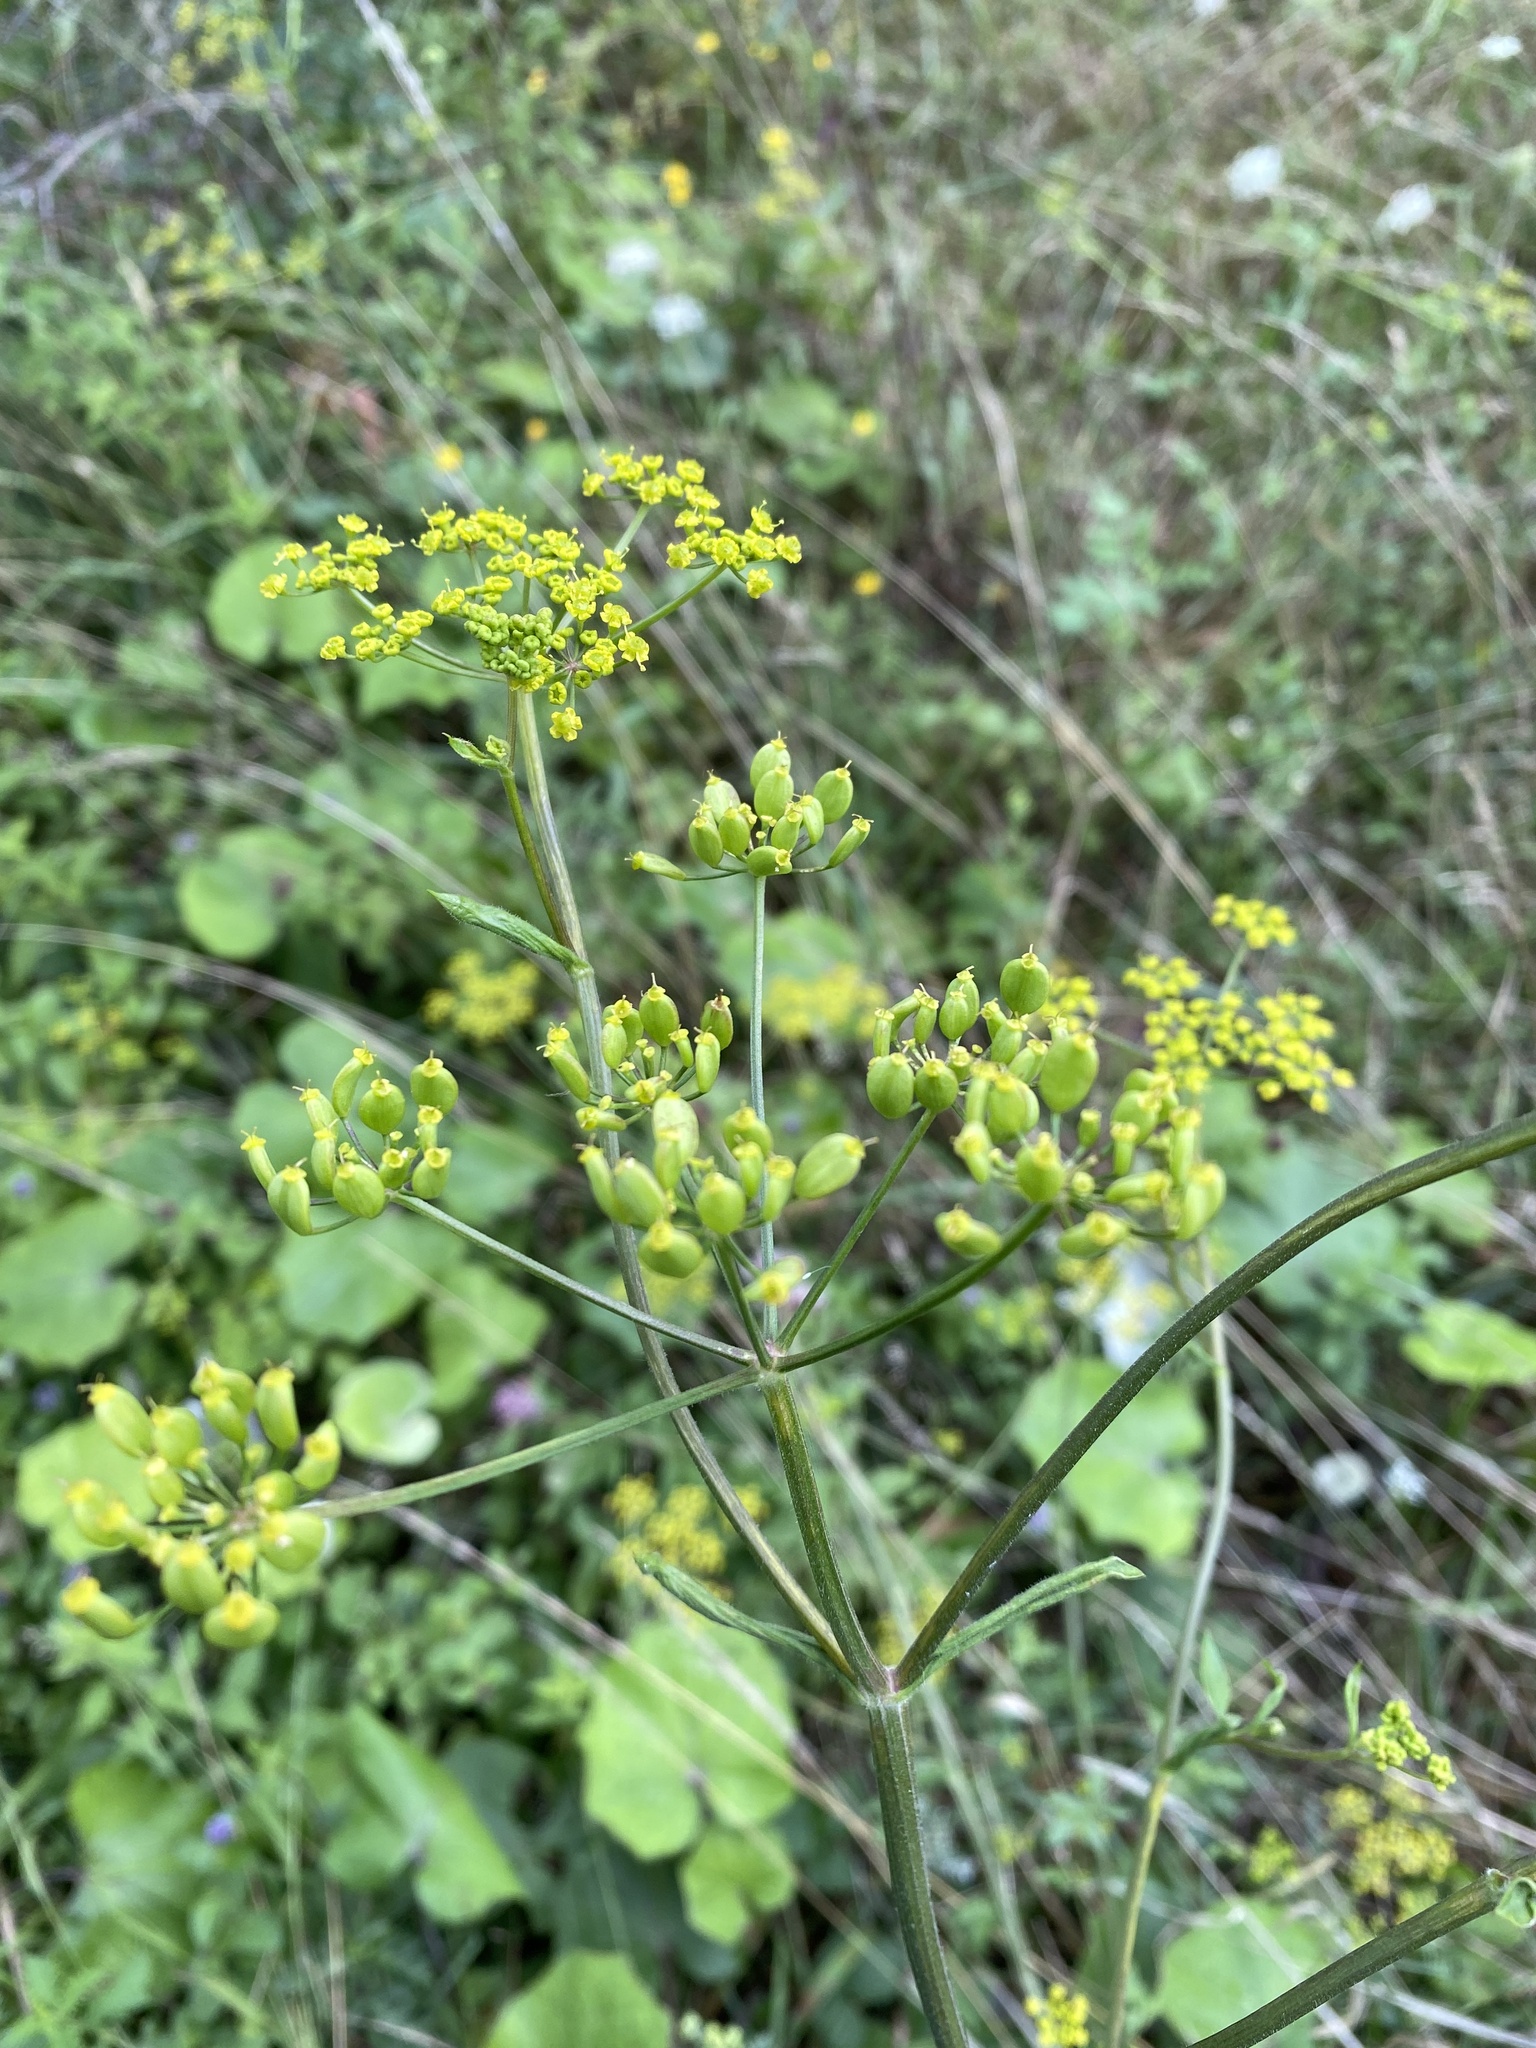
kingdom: Plantae
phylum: Tracheophyta
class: Magnoliopsida
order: Apiales
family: Apiaceae
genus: Pastinaca
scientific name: Pastinaca sativa
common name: Wild parsnip
